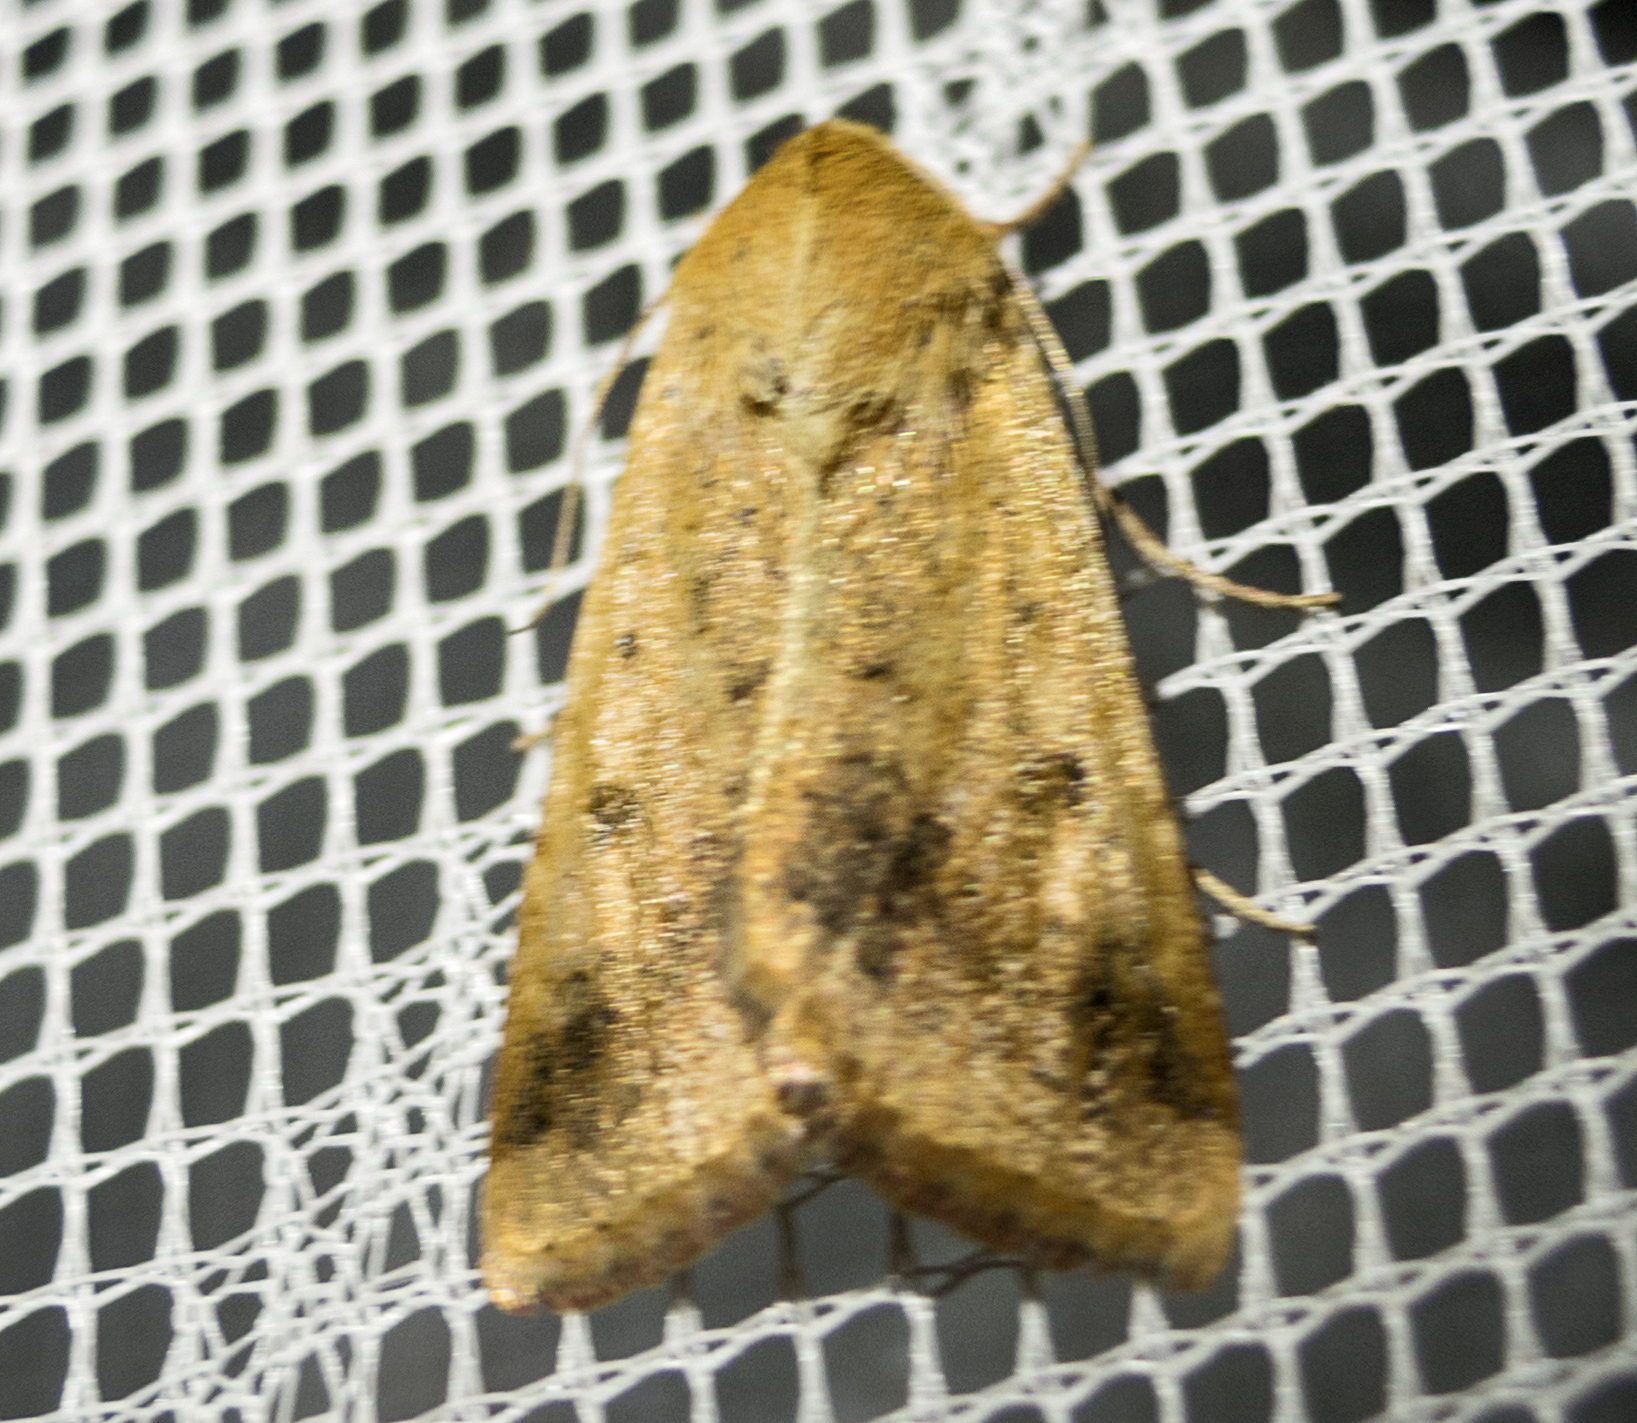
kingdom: Animalia
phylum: Arthropoda
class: Insecta
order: Lepidoptera
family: Noctuidae
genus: Helicoverpa
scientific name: Helicoverpa armigera
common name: Cotton bollworm
